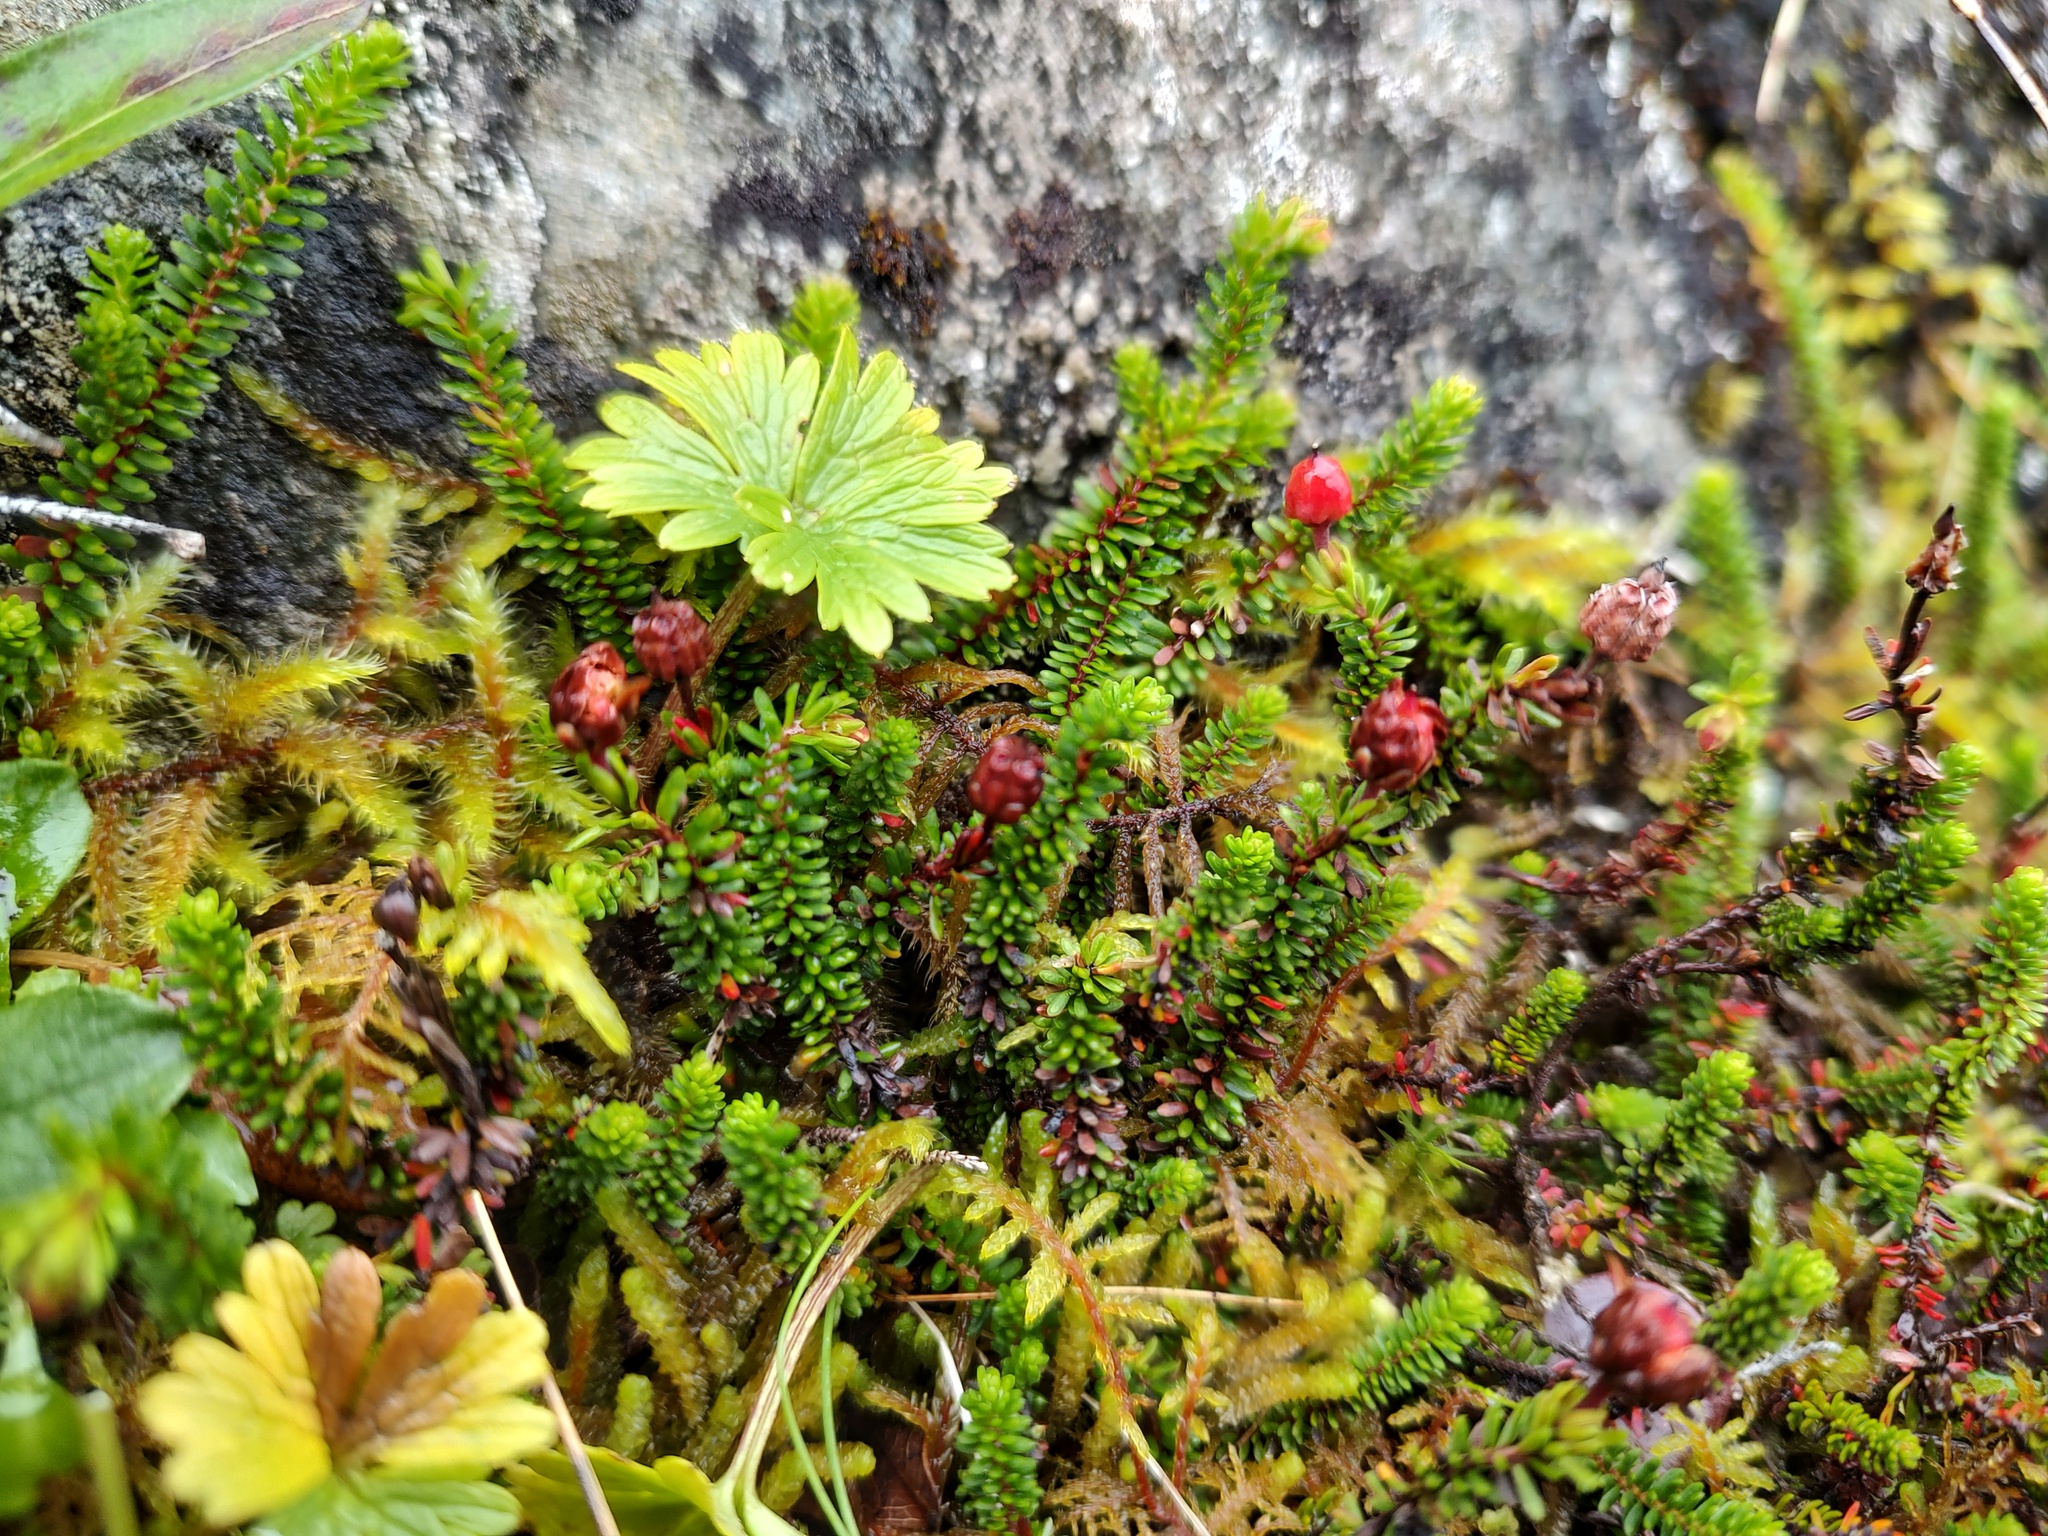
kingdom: Plantae
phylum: Tracheophyta
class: Magnoliopsida
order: Ericales
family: Ericaceae
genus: Harrimanella
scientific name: Harrimanella stelleriana
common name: Alaska bell heather
